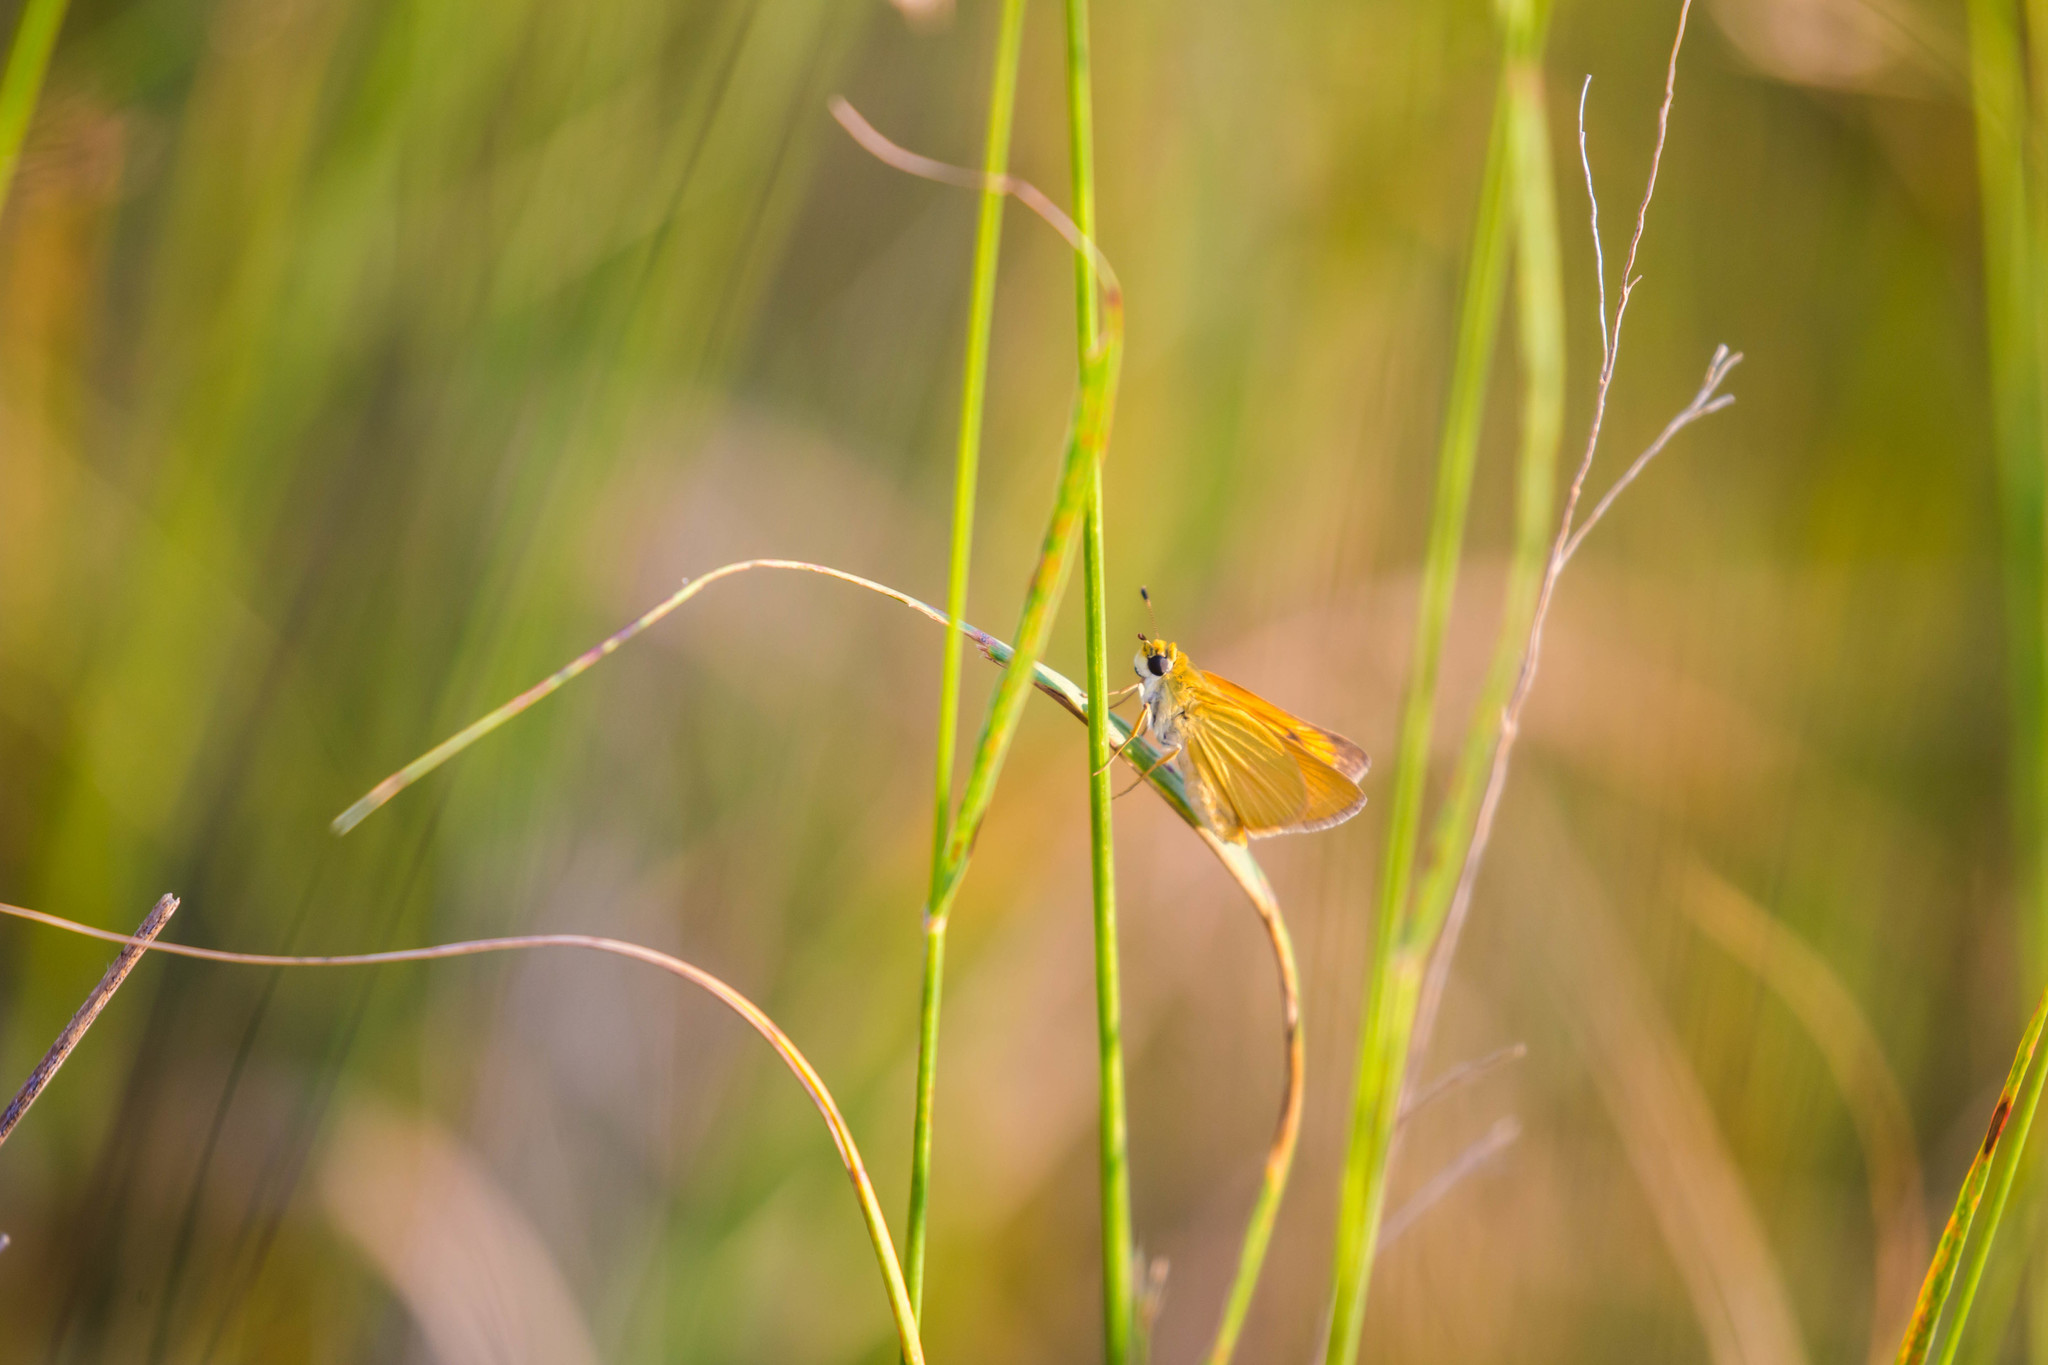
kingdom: Animalia
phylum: Arthropoda
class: Insecta
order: Lepidoptera
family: Hesperiidae
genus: Atrytone
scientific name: Atrytone delaware
